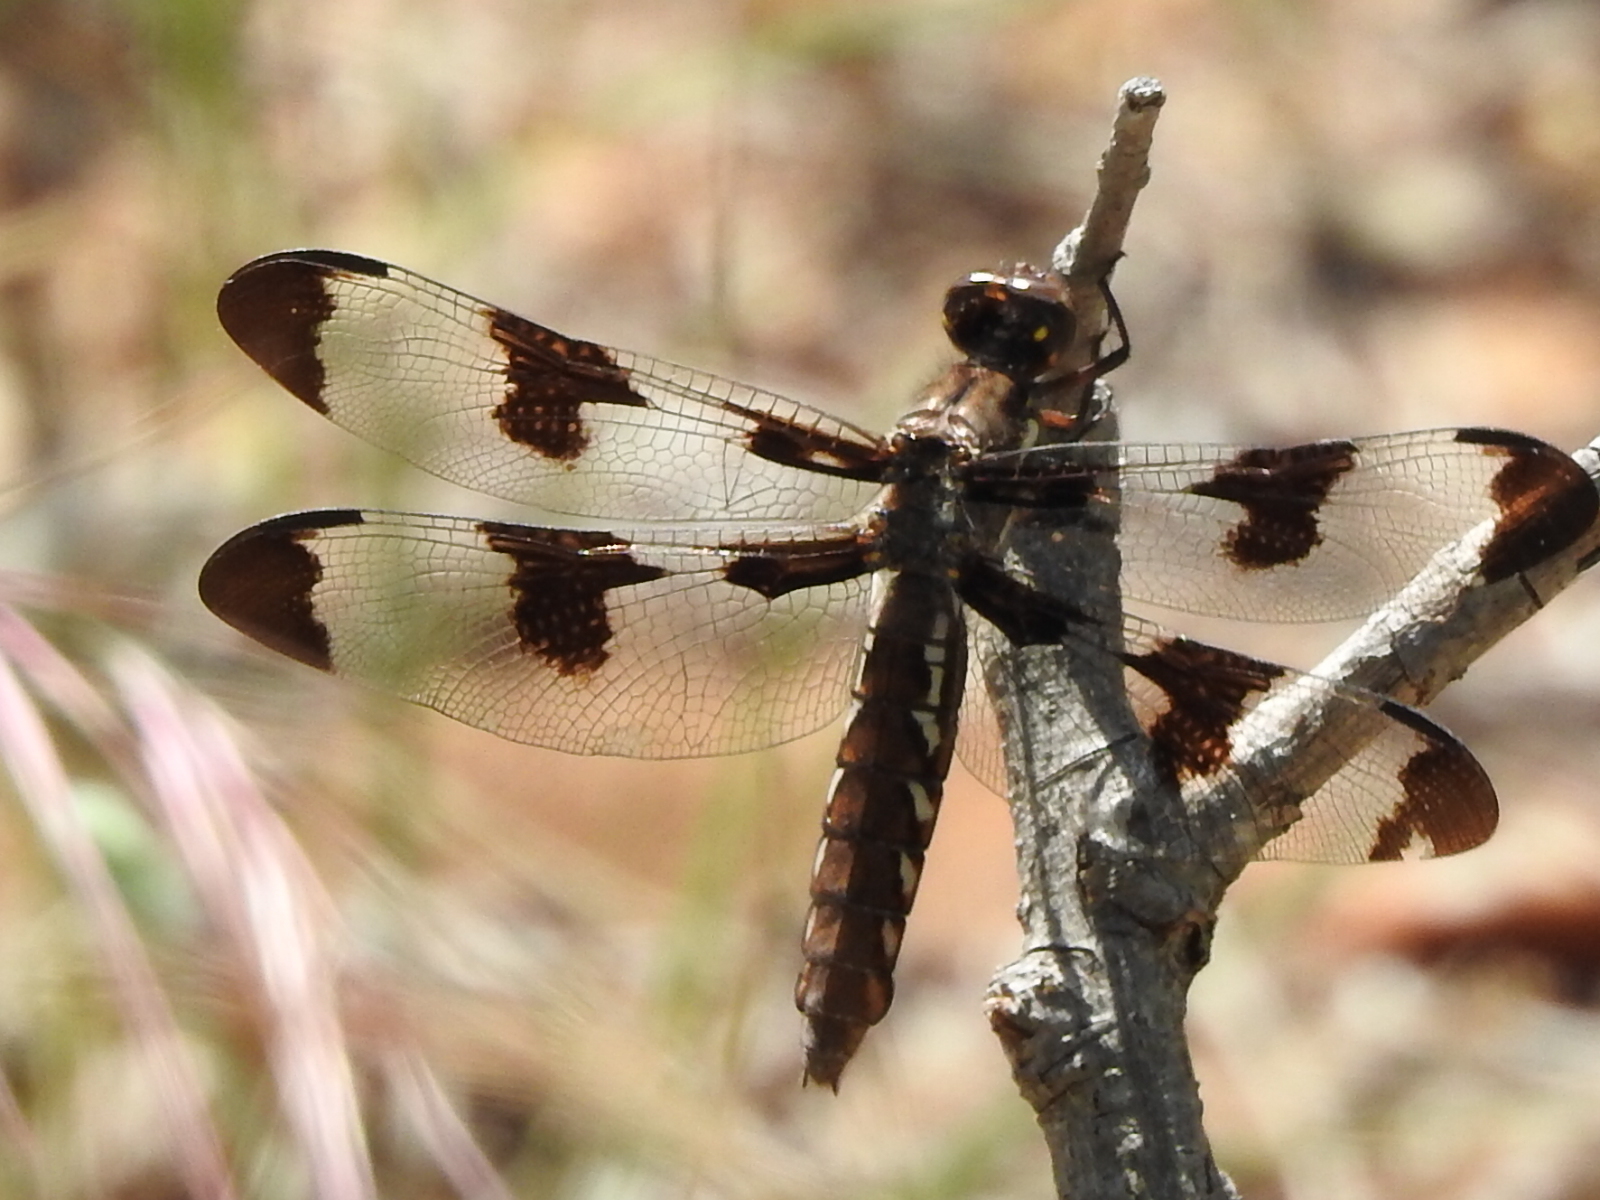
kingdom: Animalia
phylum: Arthropoda
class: Insecta
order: Odonata
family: Libellulidae
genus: Plathemis
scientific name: Plathemis lydia
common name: Common whitetail
